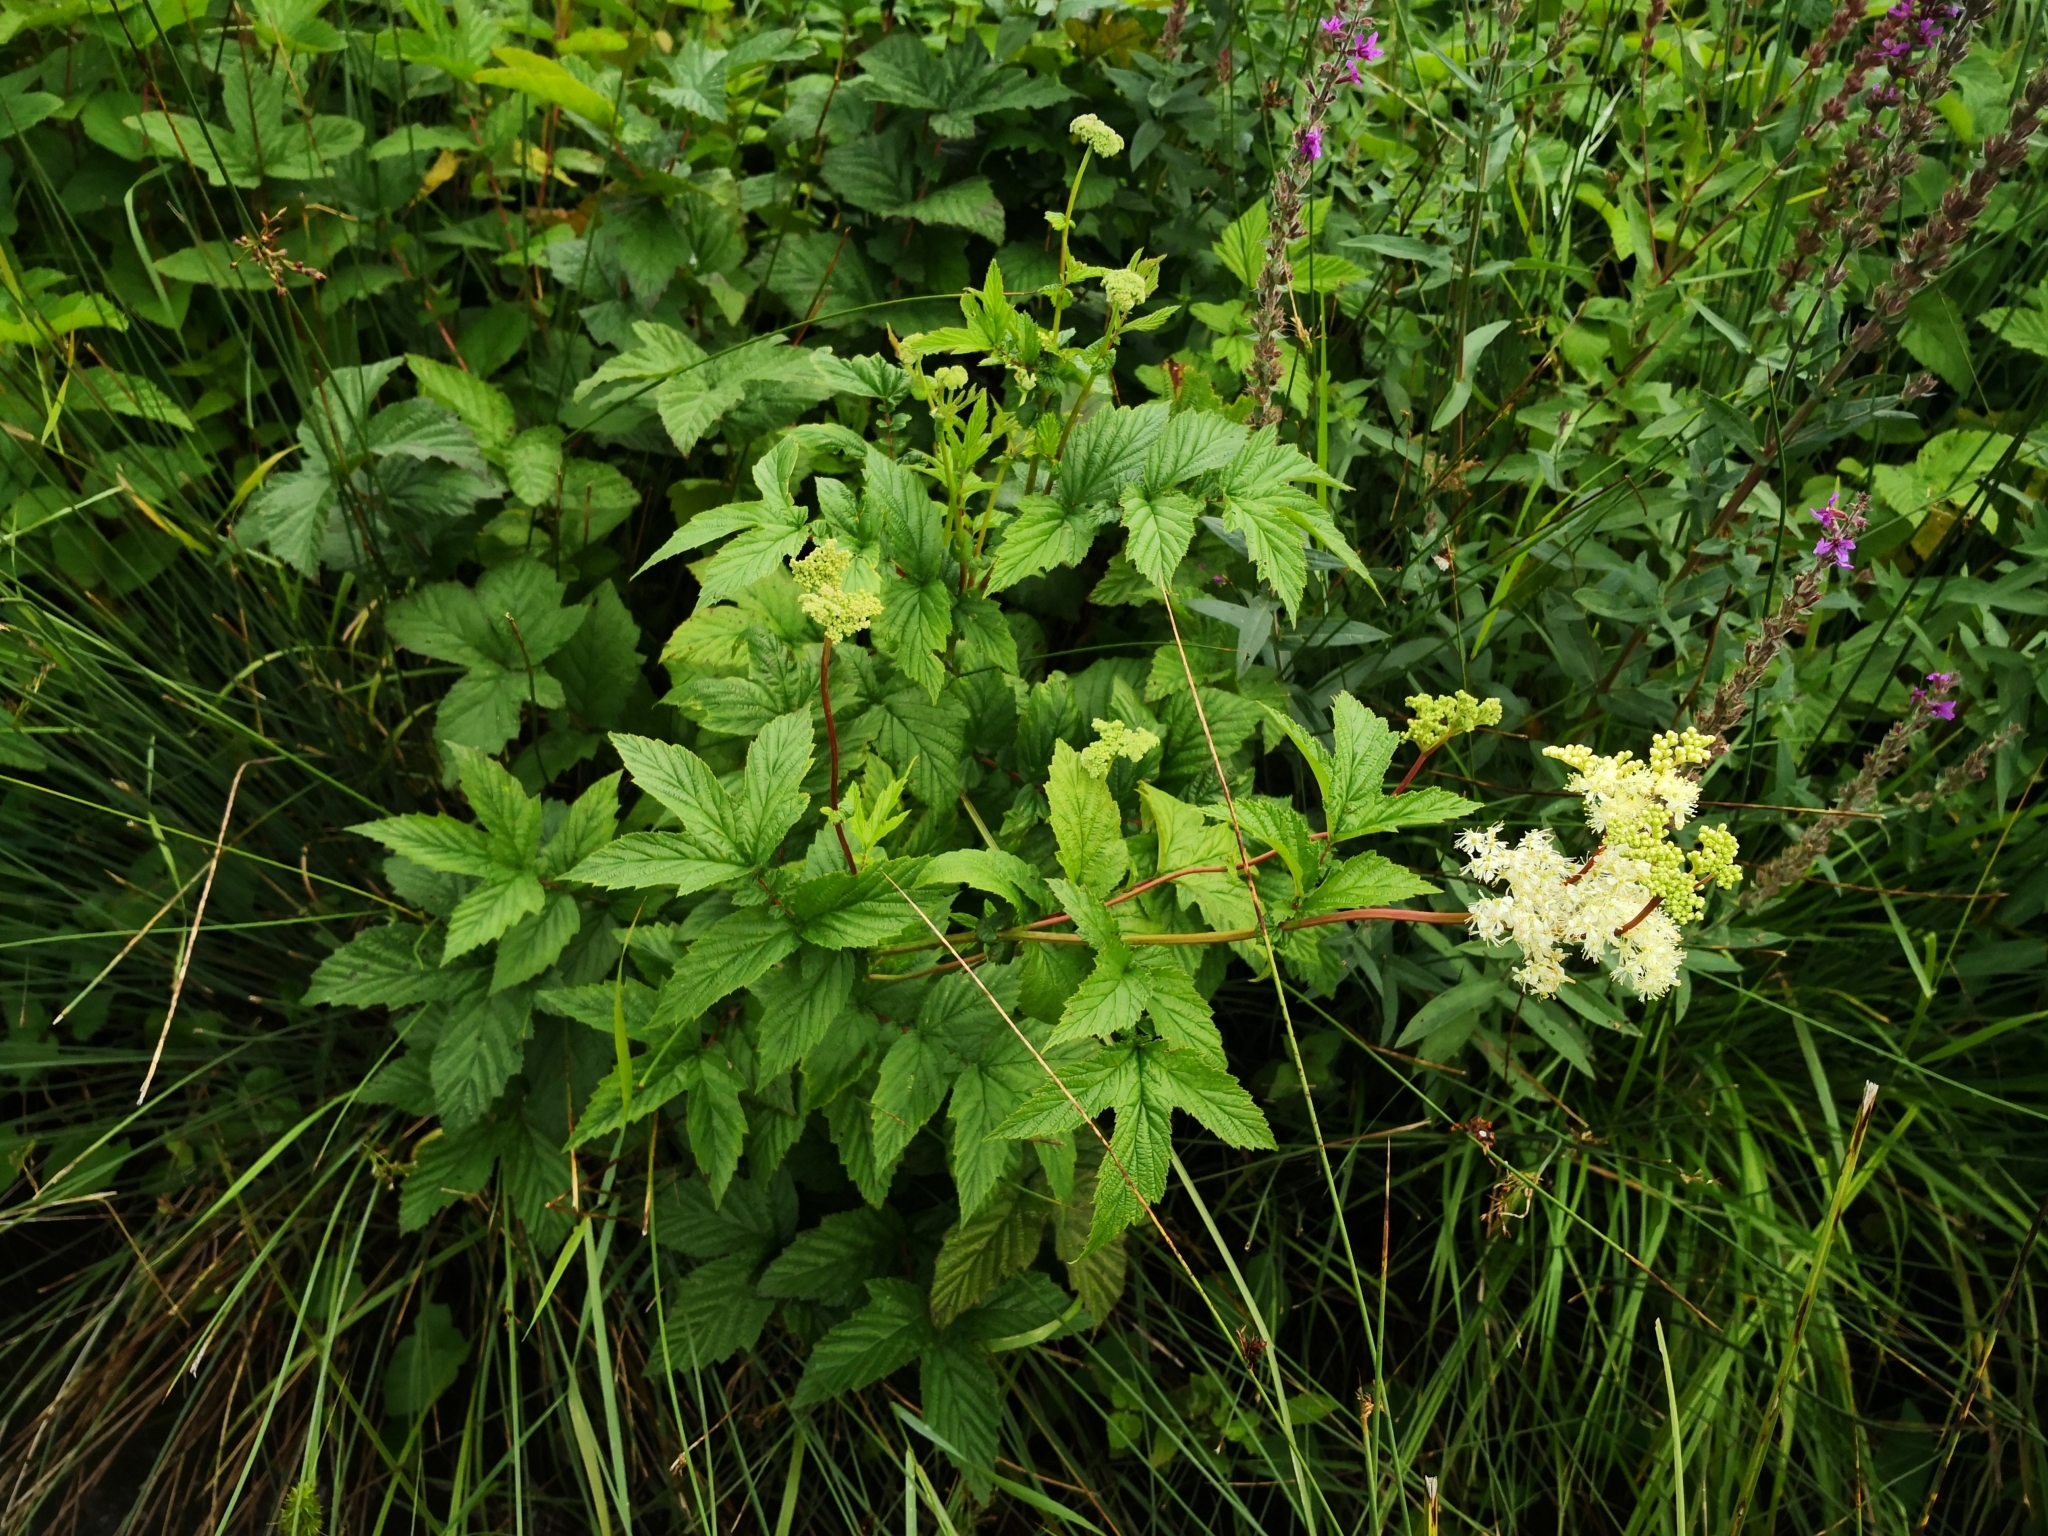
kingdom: Plantae
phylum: Tracheophyta
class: Magnoliopsida
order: Rosales
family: Rosaceae
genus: Filipendula
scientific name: Filipendula ulmaria
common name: Meadowsweet
